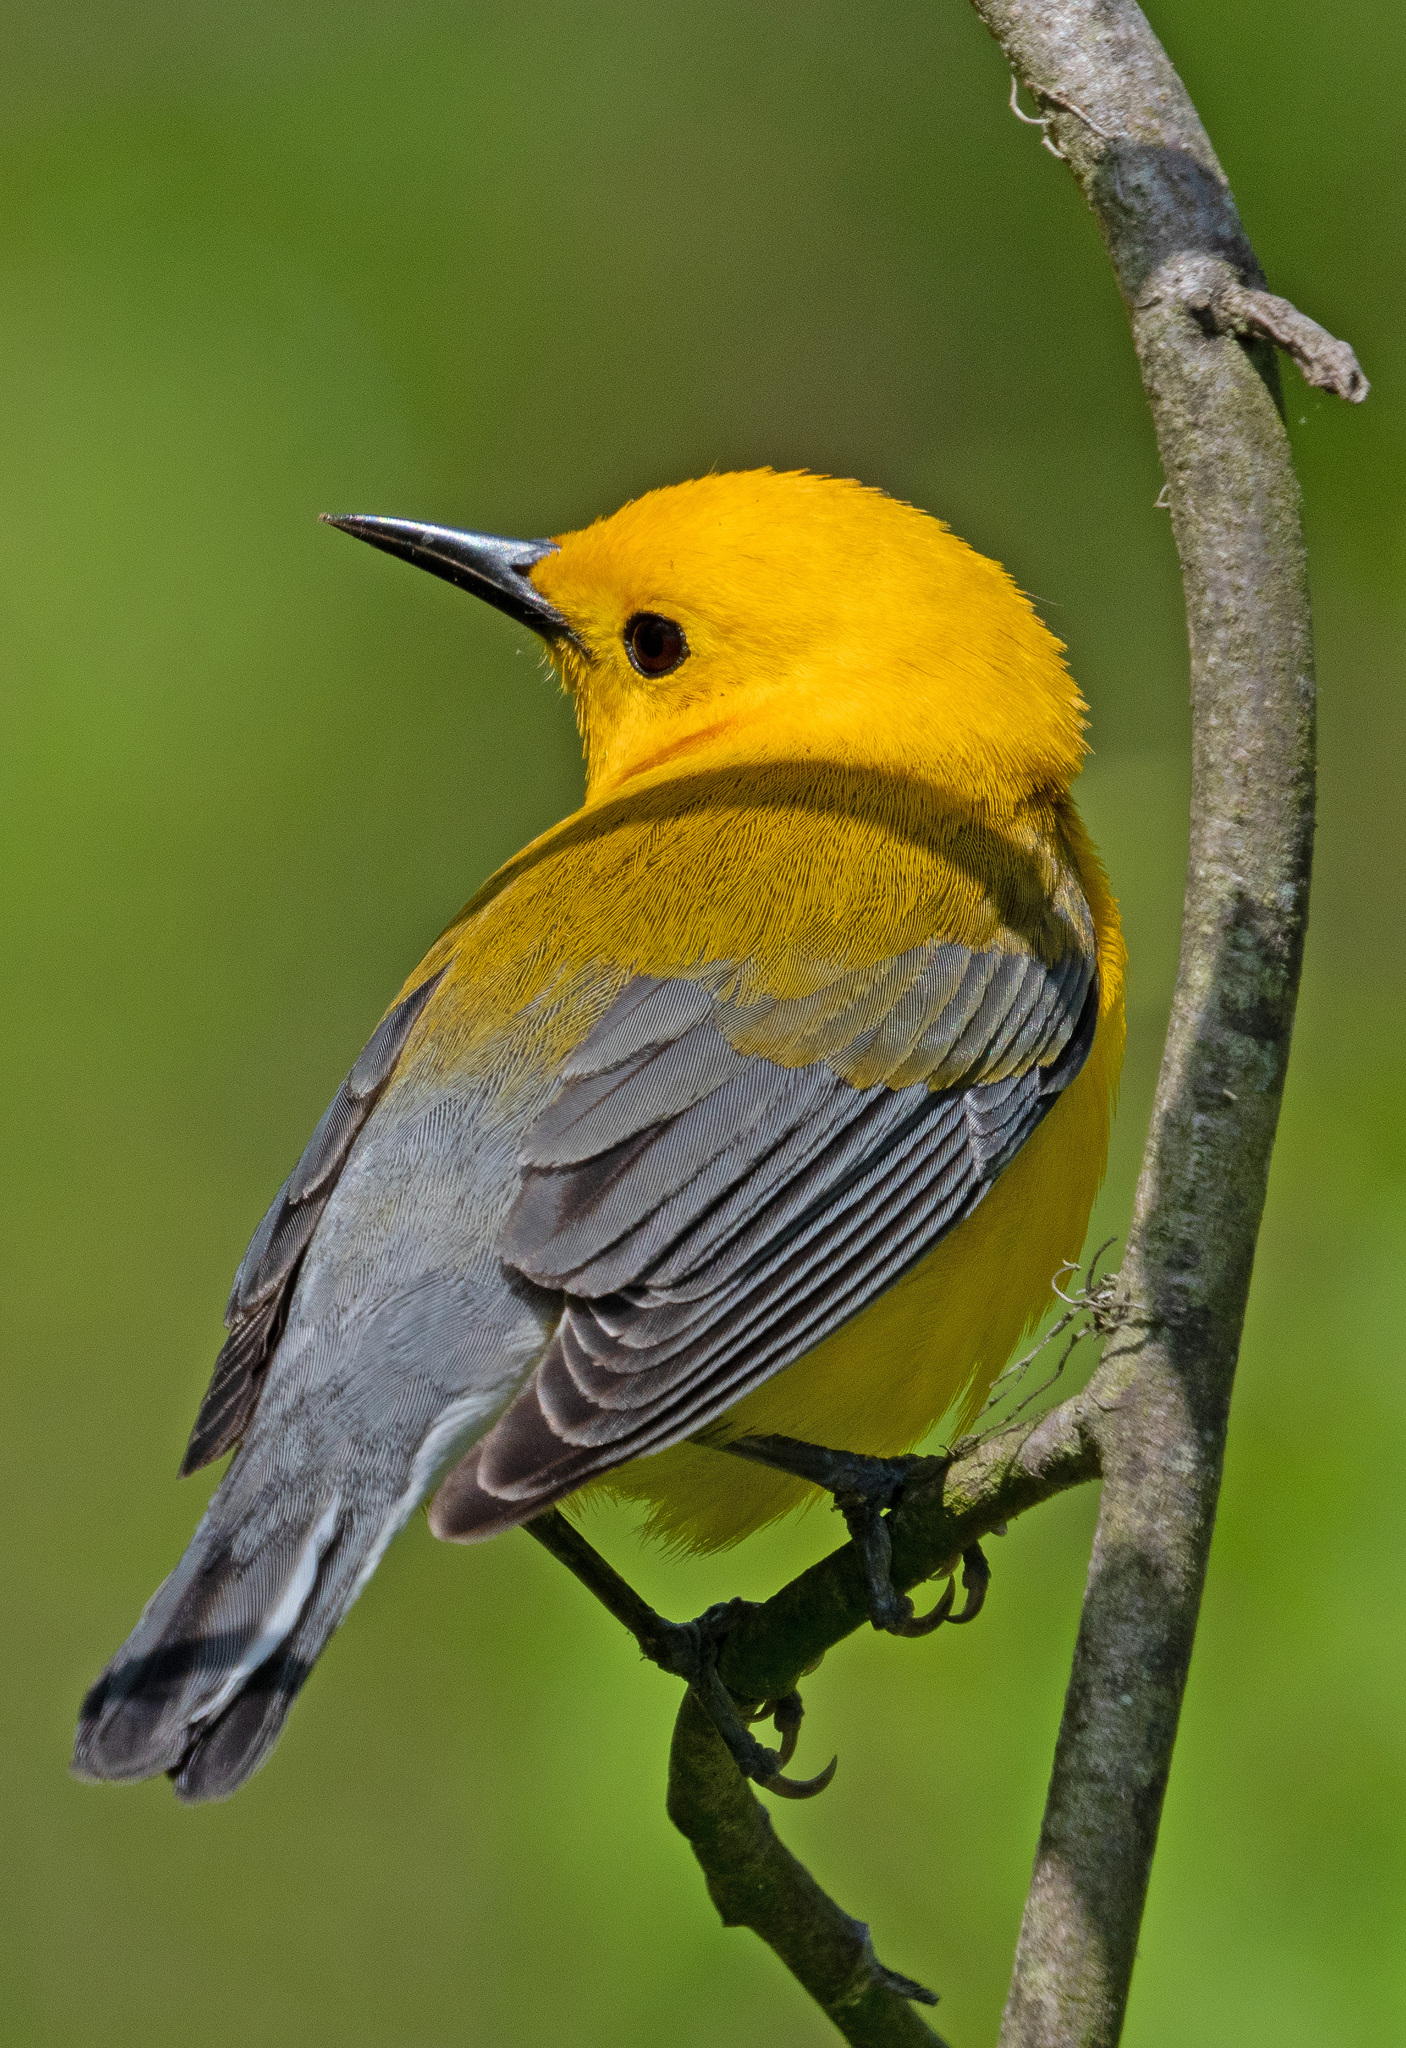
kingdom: Animalia
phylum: Chordata
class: Aves
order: Passeriformes
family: Parulidae
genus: Protonotaria
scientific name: Protonotaria citrea
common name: Prothonotary warbler
